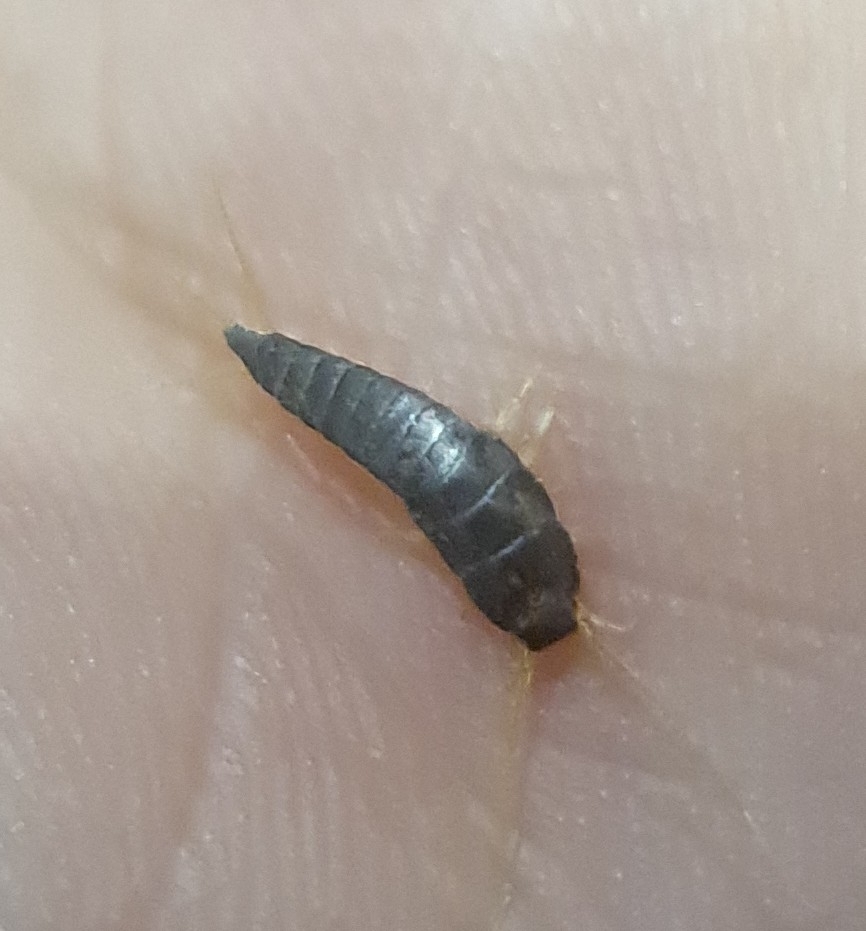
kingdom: Animalia
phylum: Arthropoda
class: Insecta
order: Zygentoma
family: Lepismatidae
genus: Lepisma
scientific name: Lepisma saccharinum
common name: Silverfish
